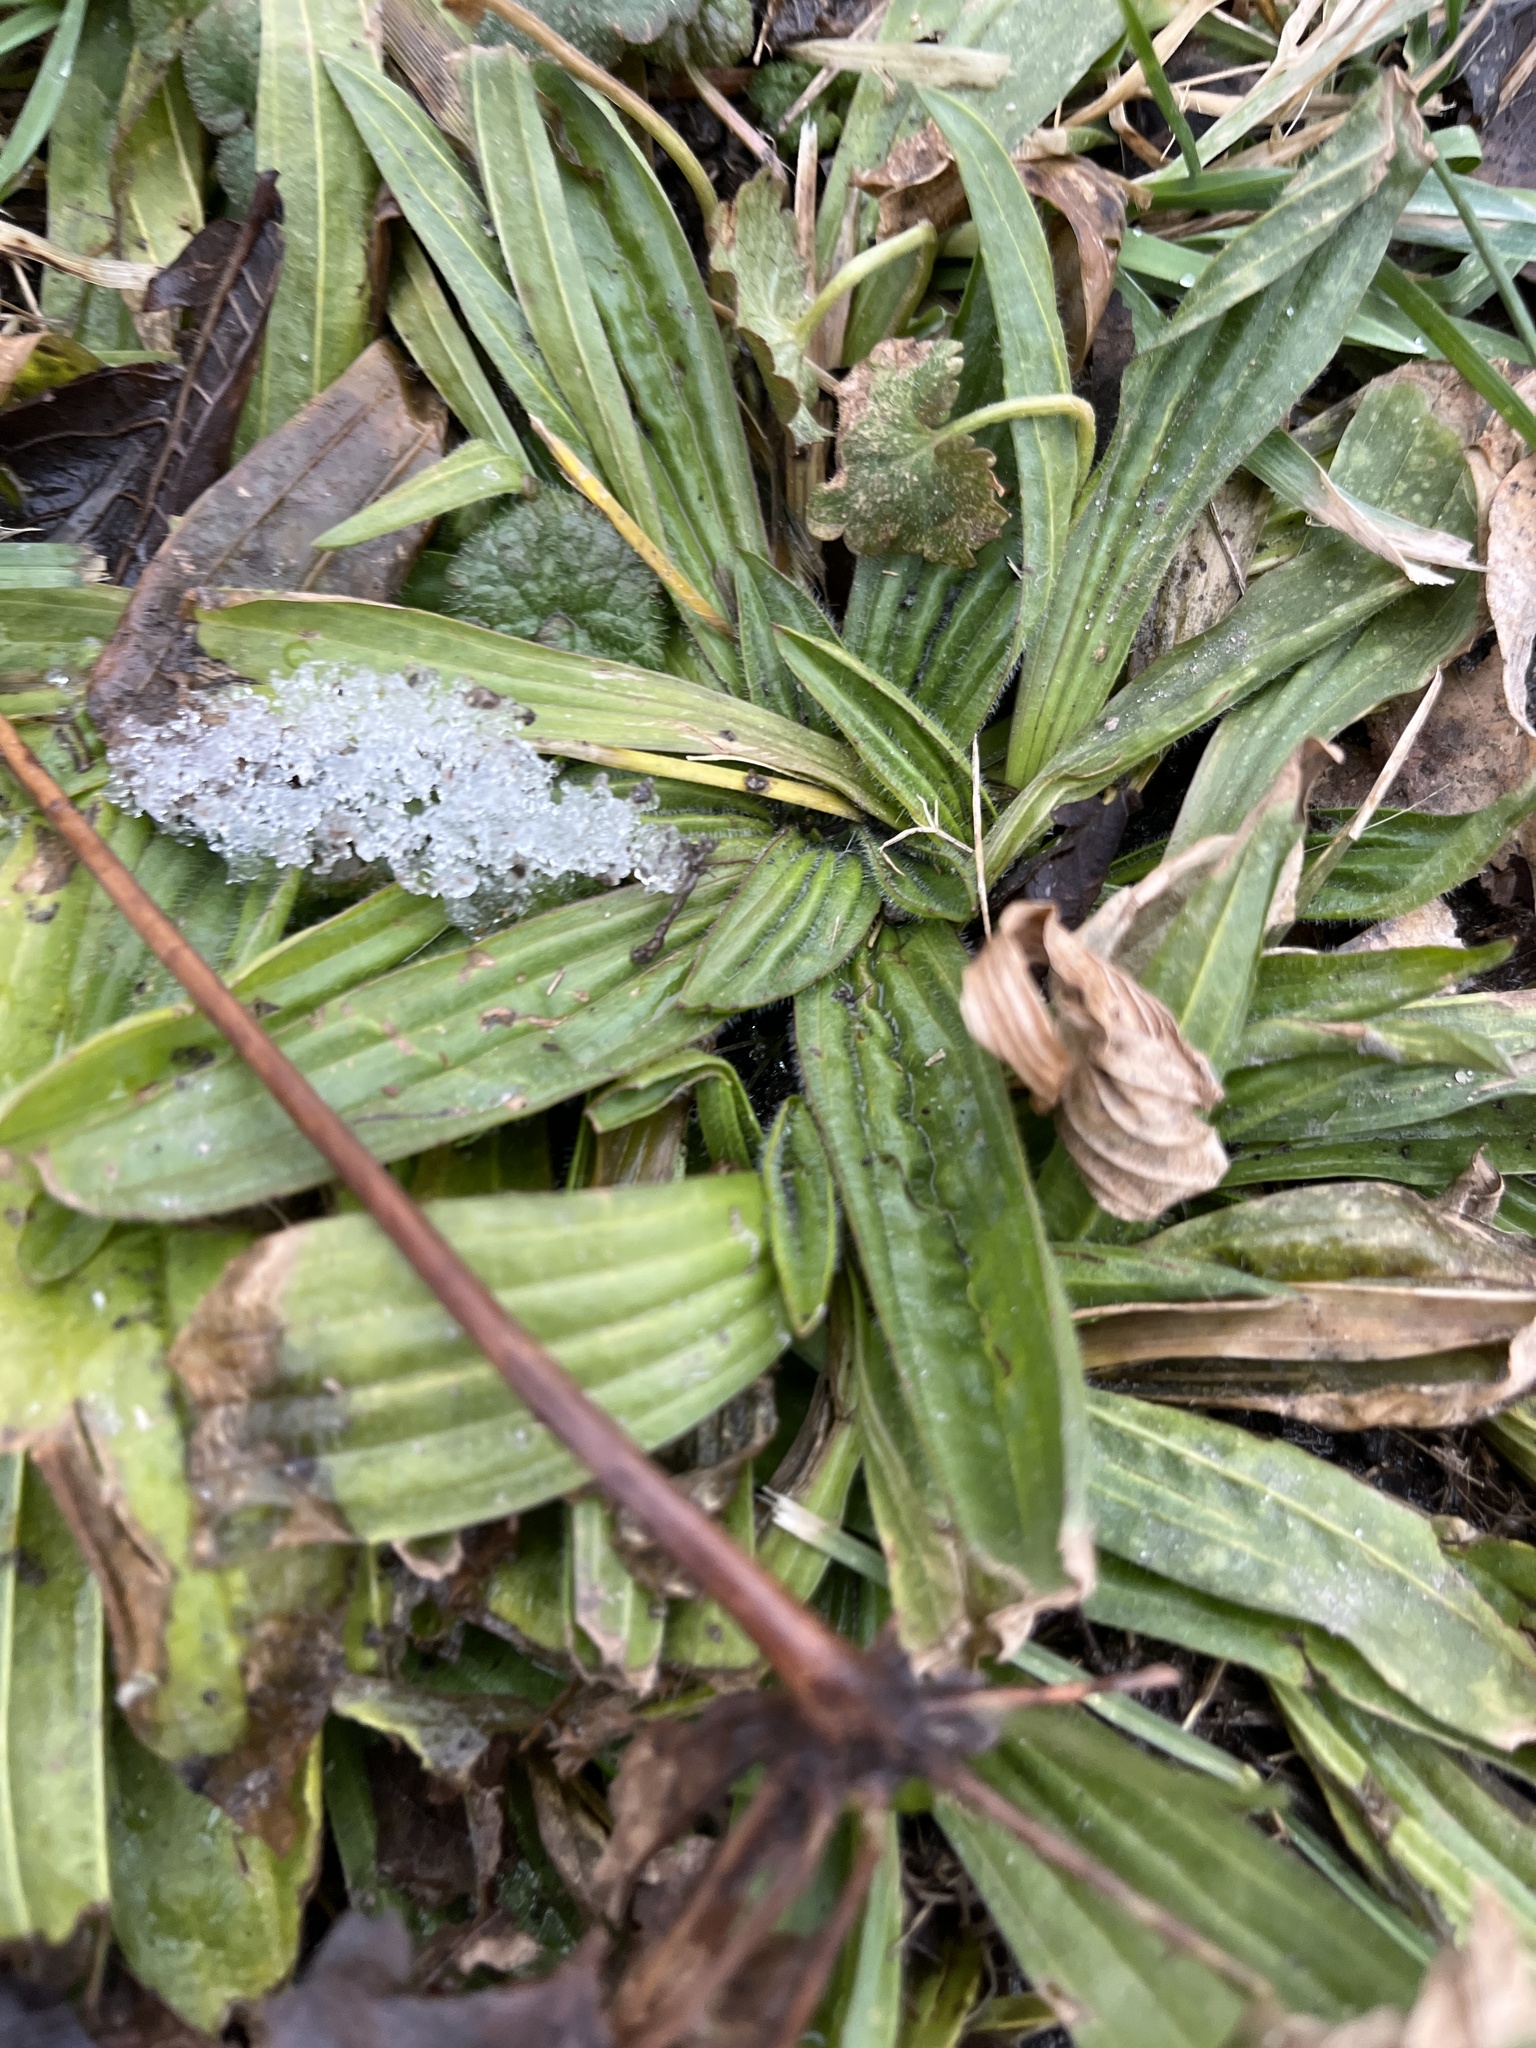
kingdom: Plantae
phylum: Tracheophyta
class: Magnoliopsida
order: Lamiales
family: Plantaginaceae
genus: Plantago
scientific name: Plantago lanceolata
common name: Ribwort plantain
